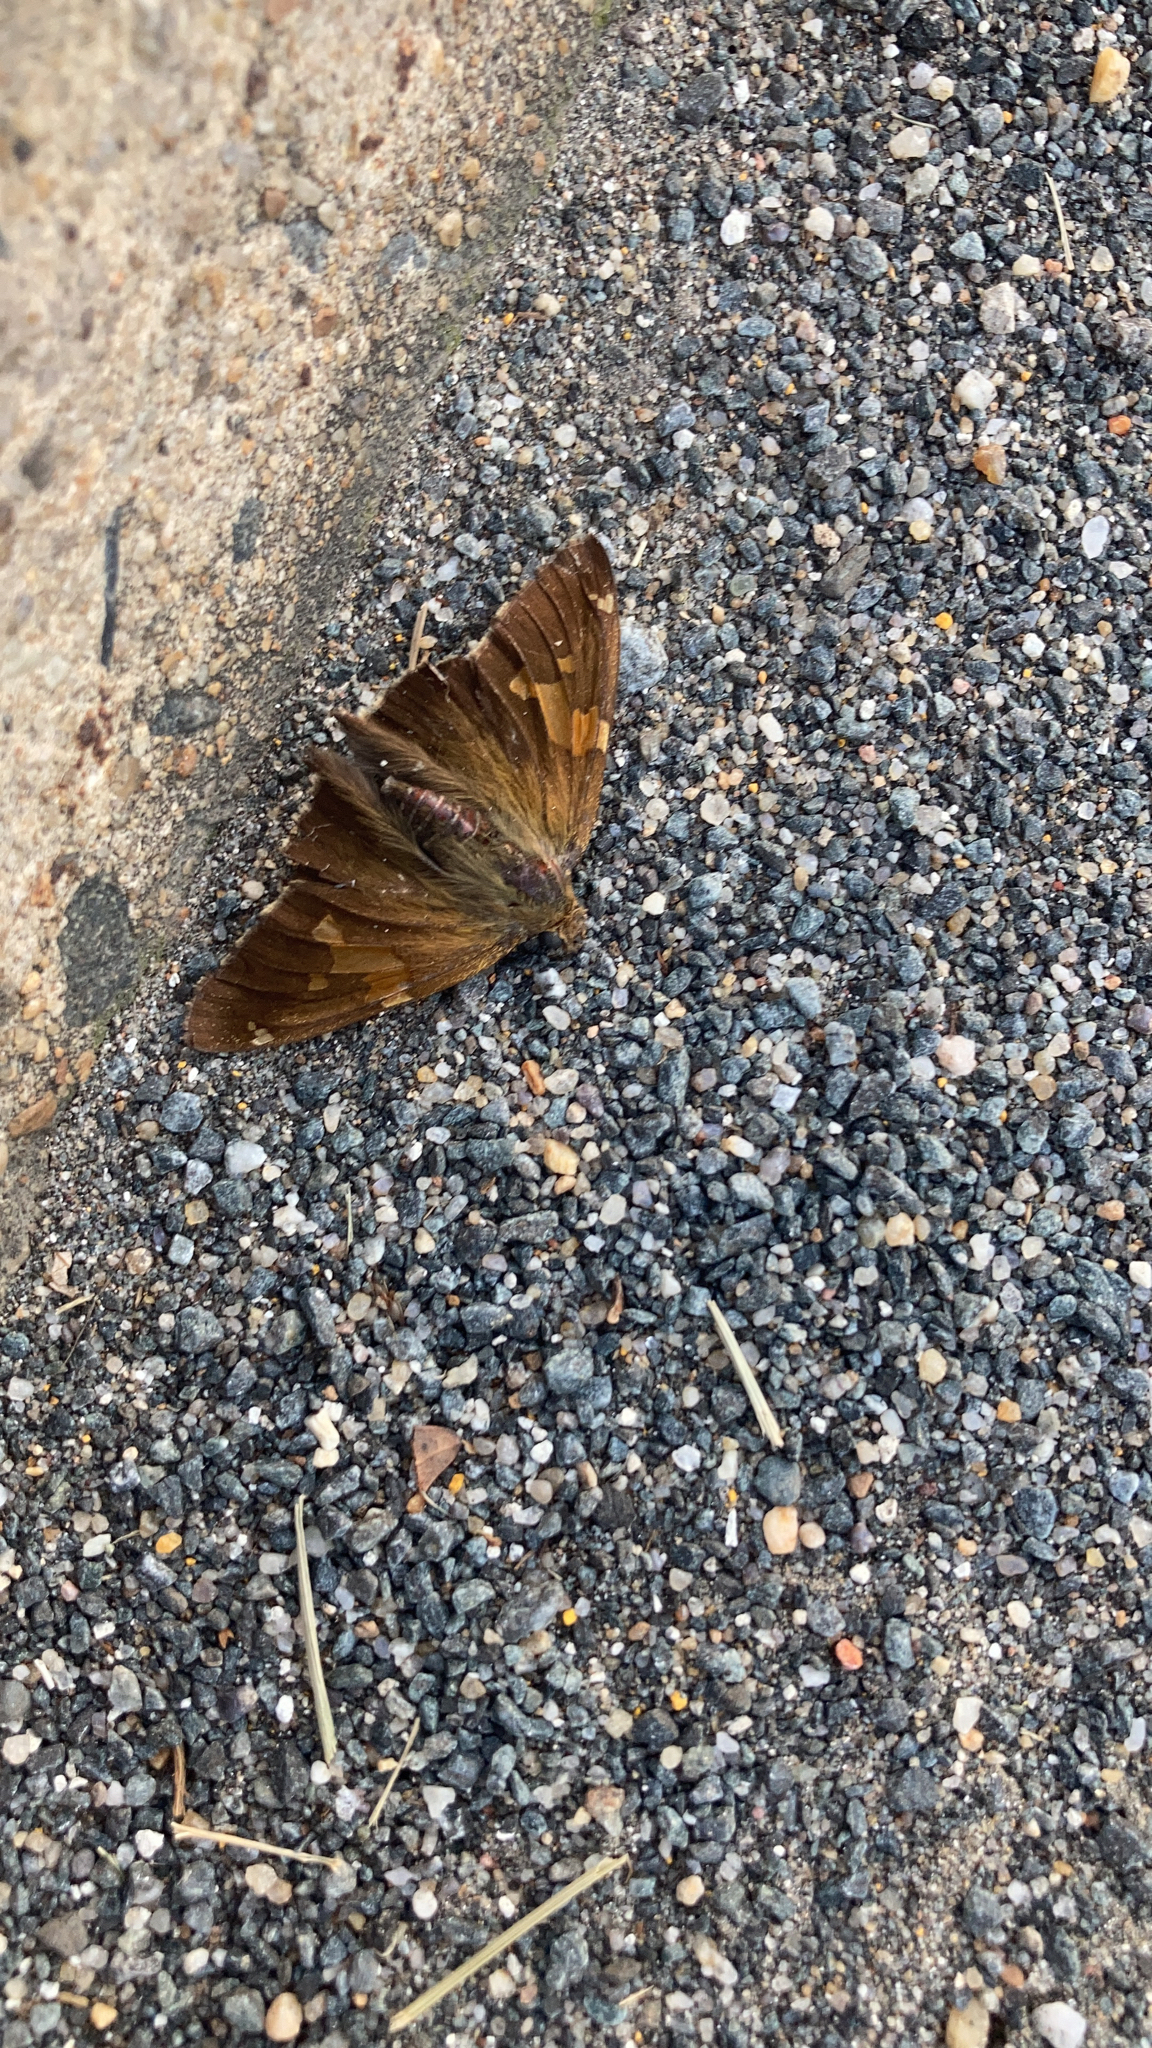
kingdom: Animalia
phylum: Arthropoda
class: Insecta
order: Lepidoptera
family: Hesperiidae
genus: Epargyreus
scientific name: Epargyreus clarus
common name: Silver-spotted skipper
